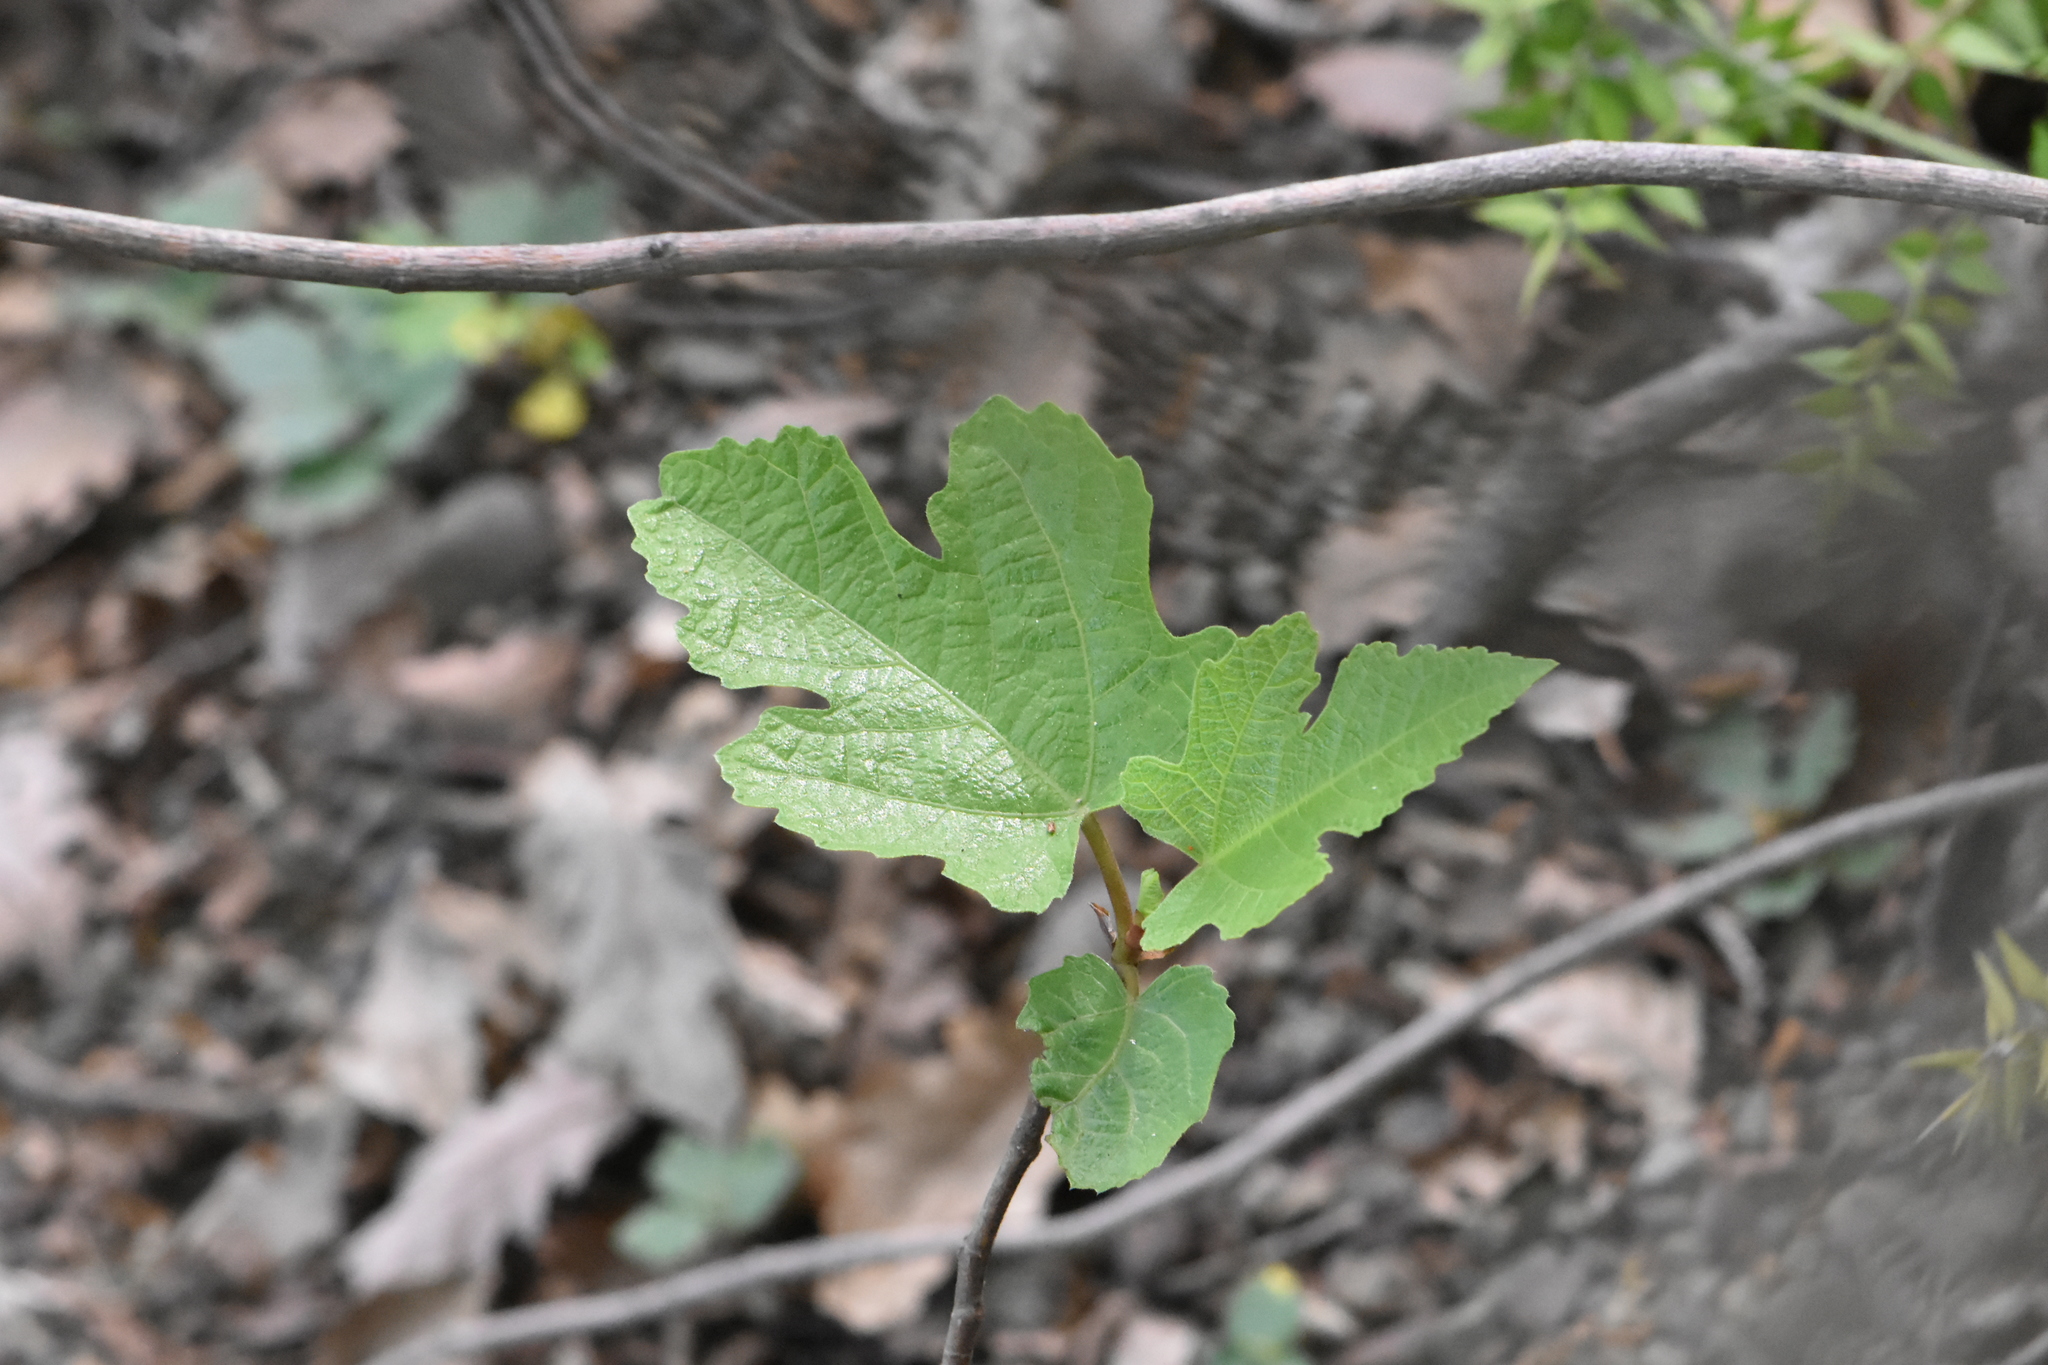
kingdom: Plantae
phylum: Tracheophyta
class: Magnoliopsida
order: Rosales
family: Moraceae
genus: Ficus
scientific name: Ficus carica
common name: Fig
